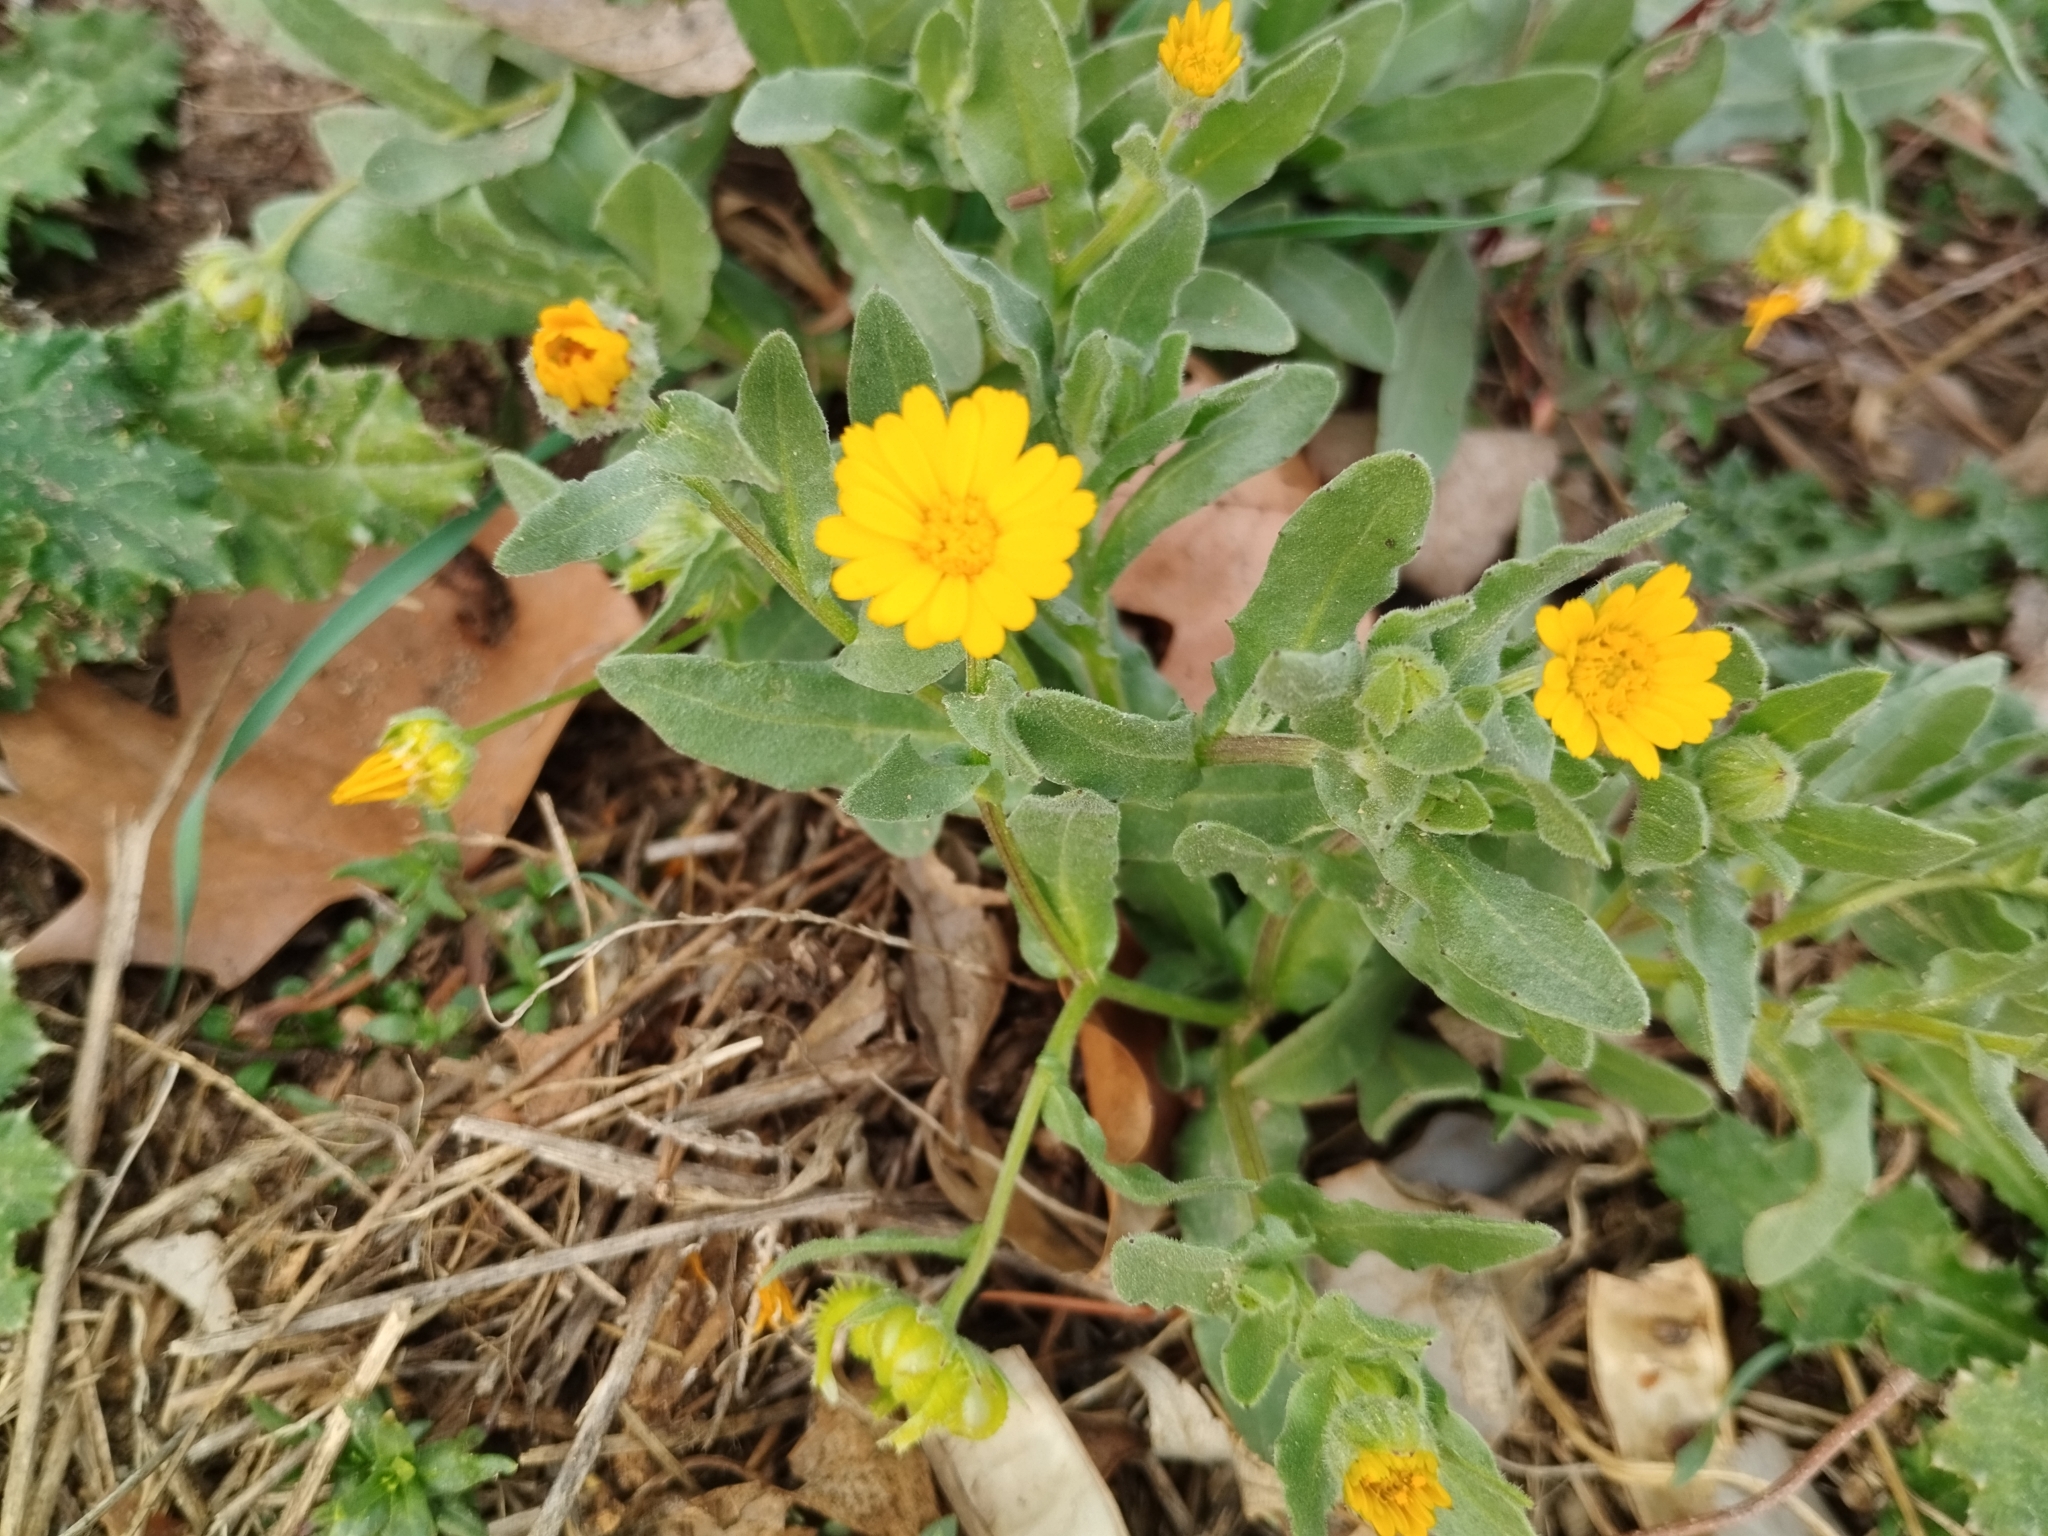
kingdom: Plantae
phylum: Tracheophyta
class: Magnoliopsida
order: Asterales
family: Asteraceae
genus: Calendula
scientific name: Calendula arvensis
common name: Field marigold
